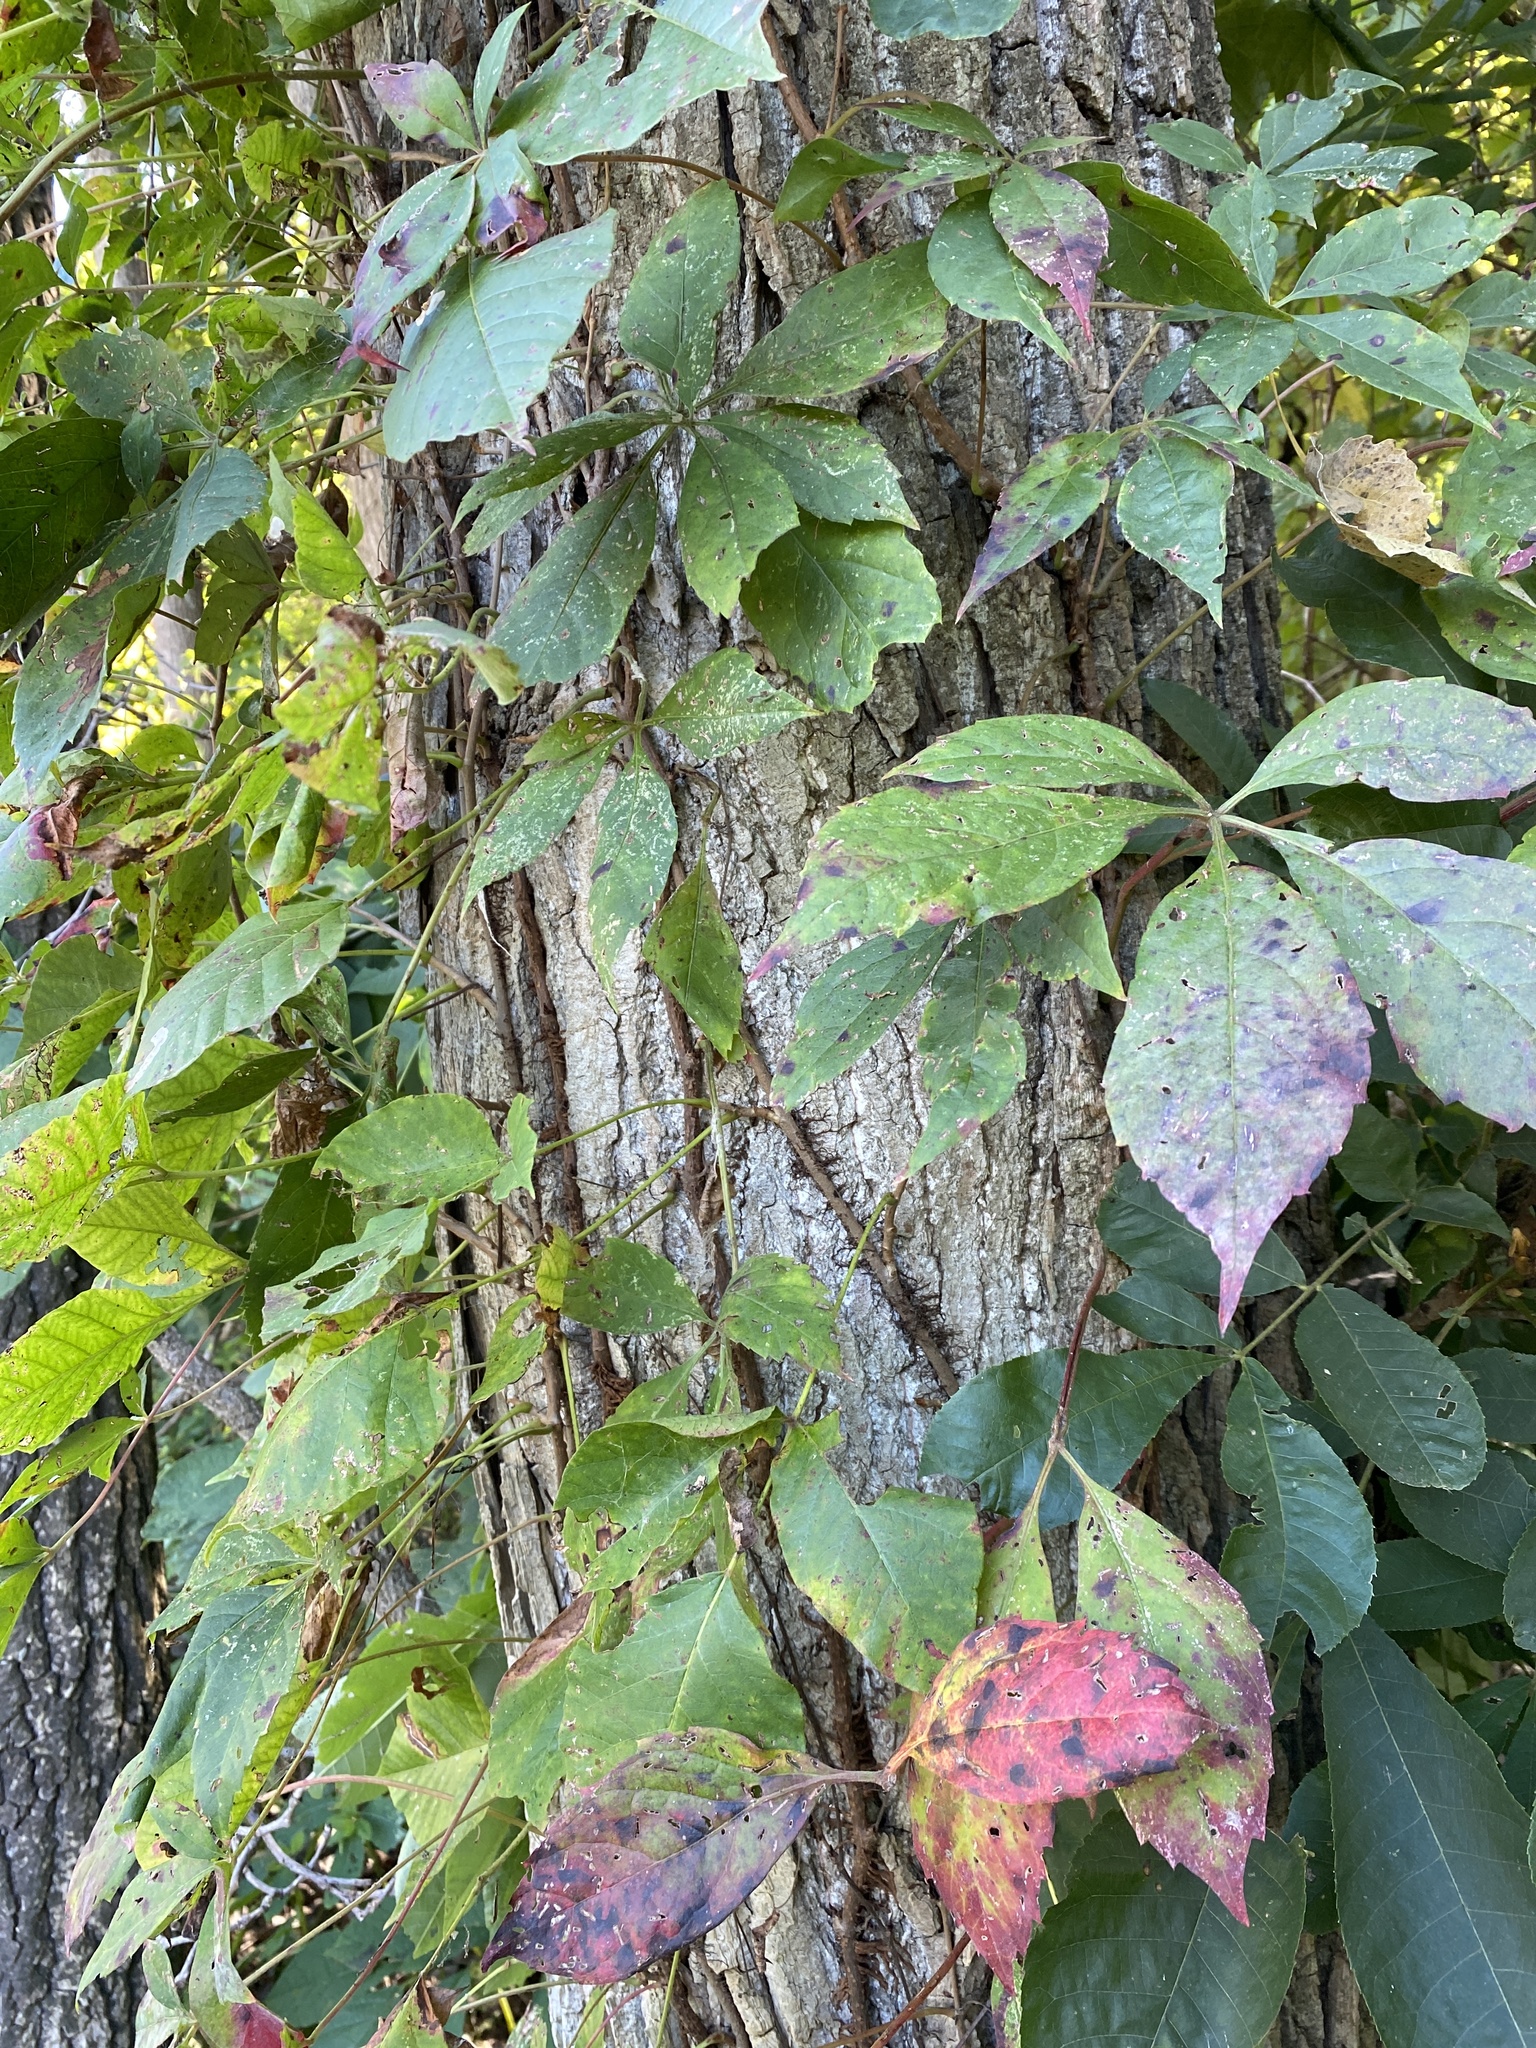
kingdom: Plantae
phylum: Tracheophyta
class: Magnoliopsida
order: Vitales
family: Vitaceae
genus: Parthenocissus
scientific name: Parthenocissus quinquefolia
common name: Virginia-creeper
